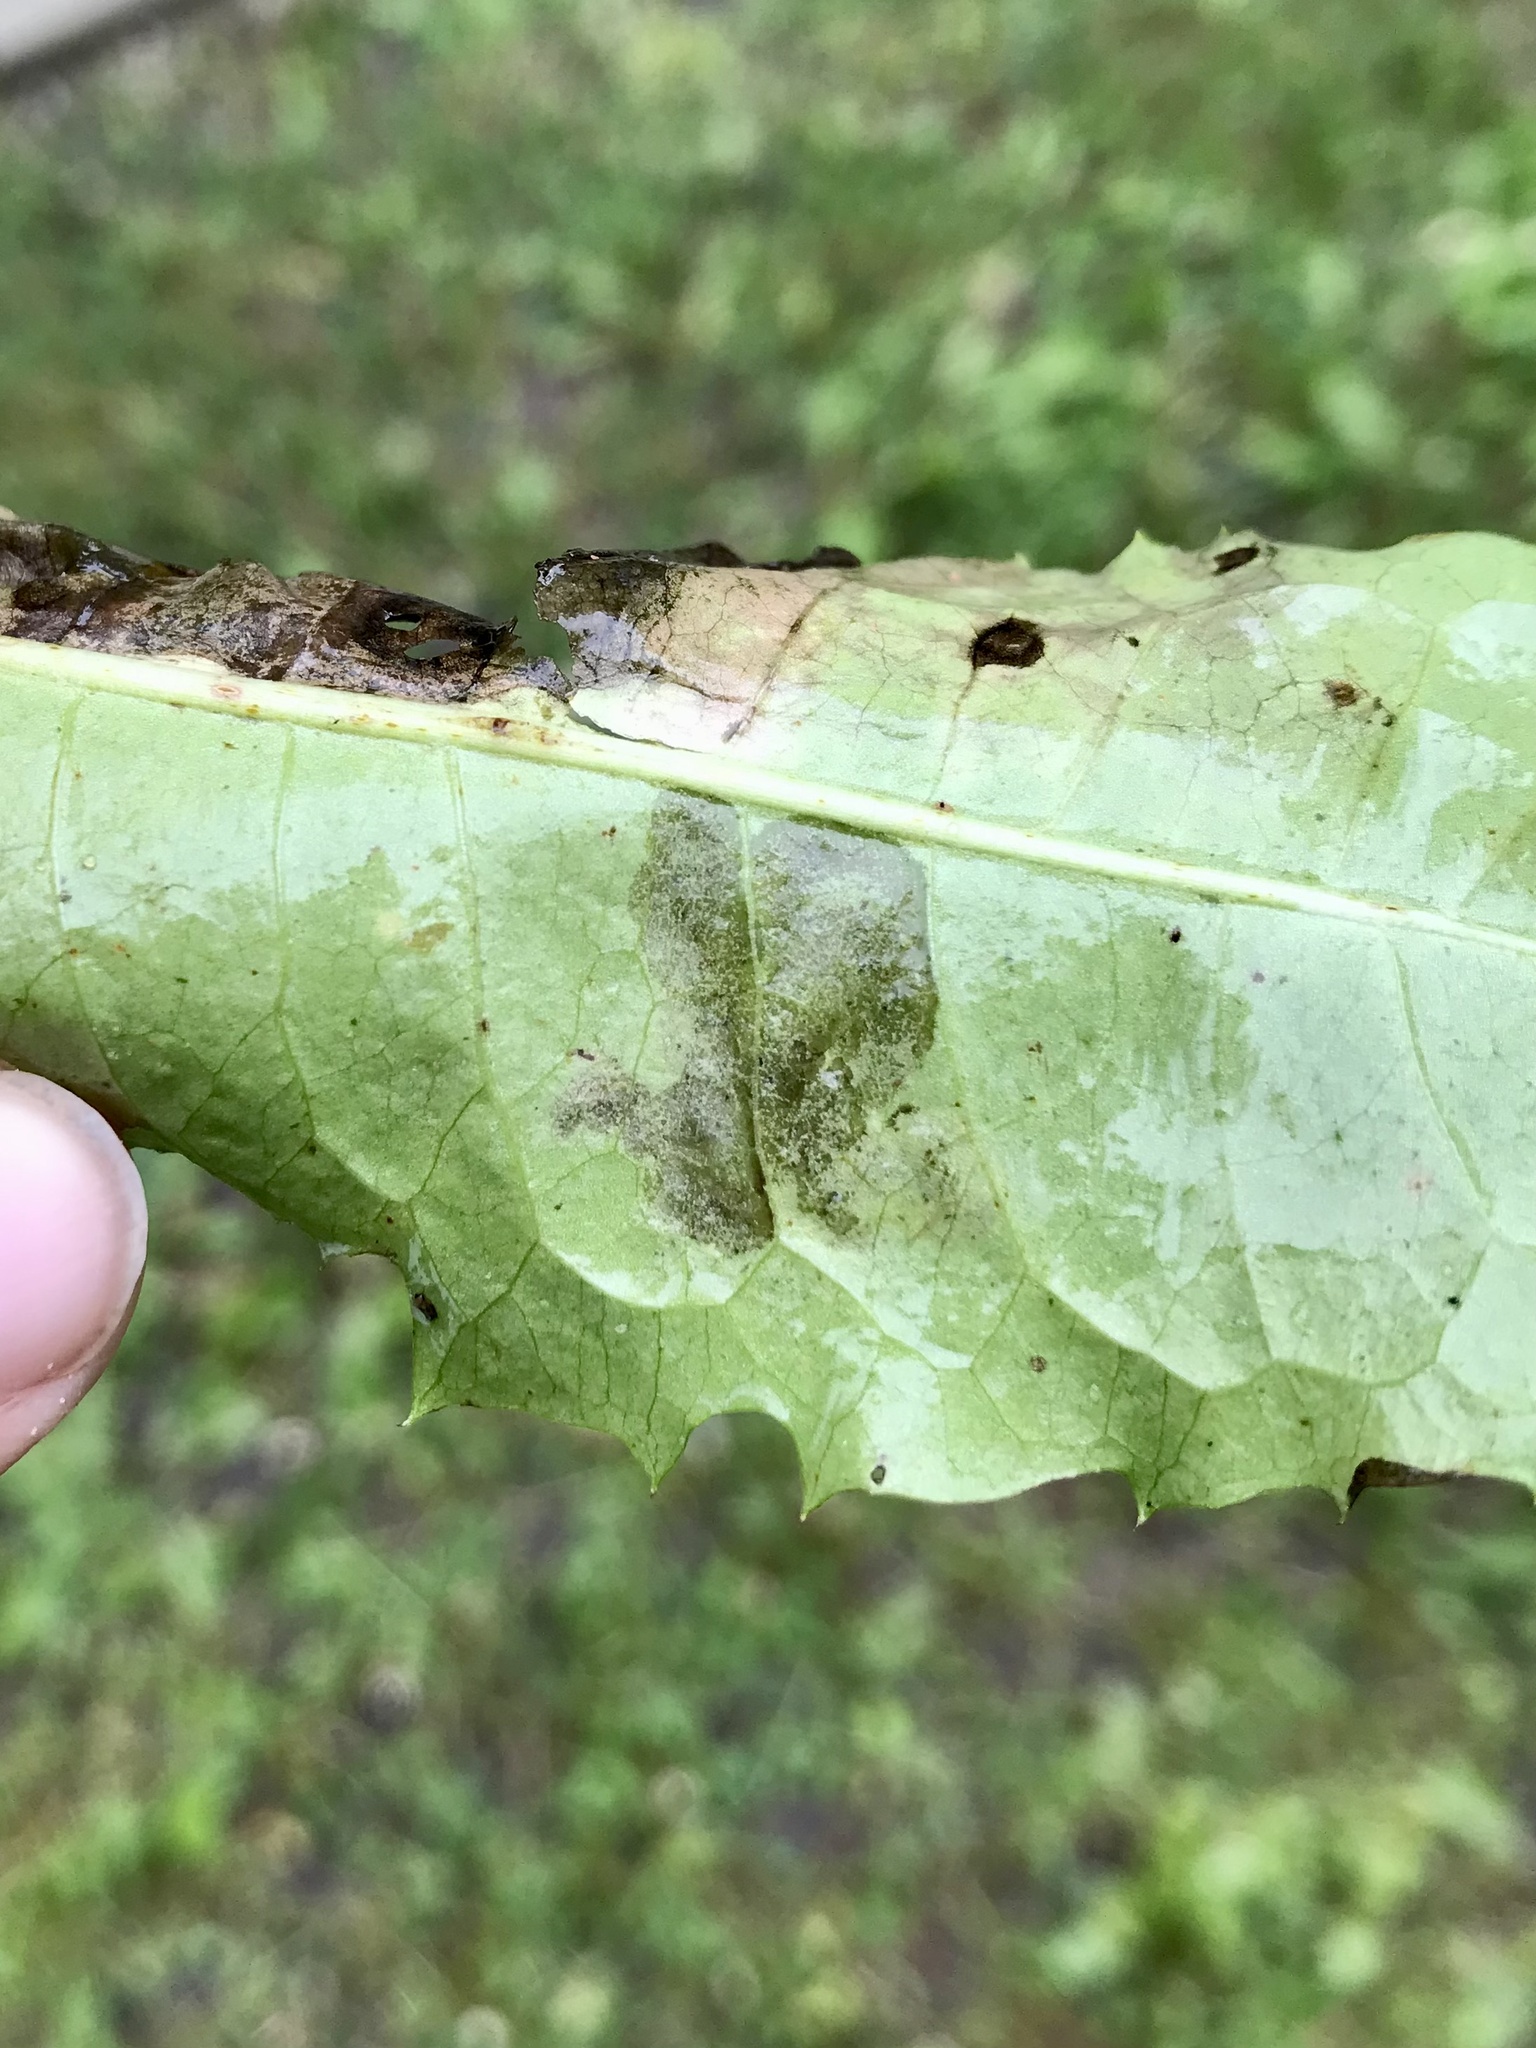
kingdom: Animalia
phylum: Arthropoda
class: Insecta
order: Diptera
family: Agromyzidae
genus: Liriomyza
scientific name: Liriomyza taraxaci
